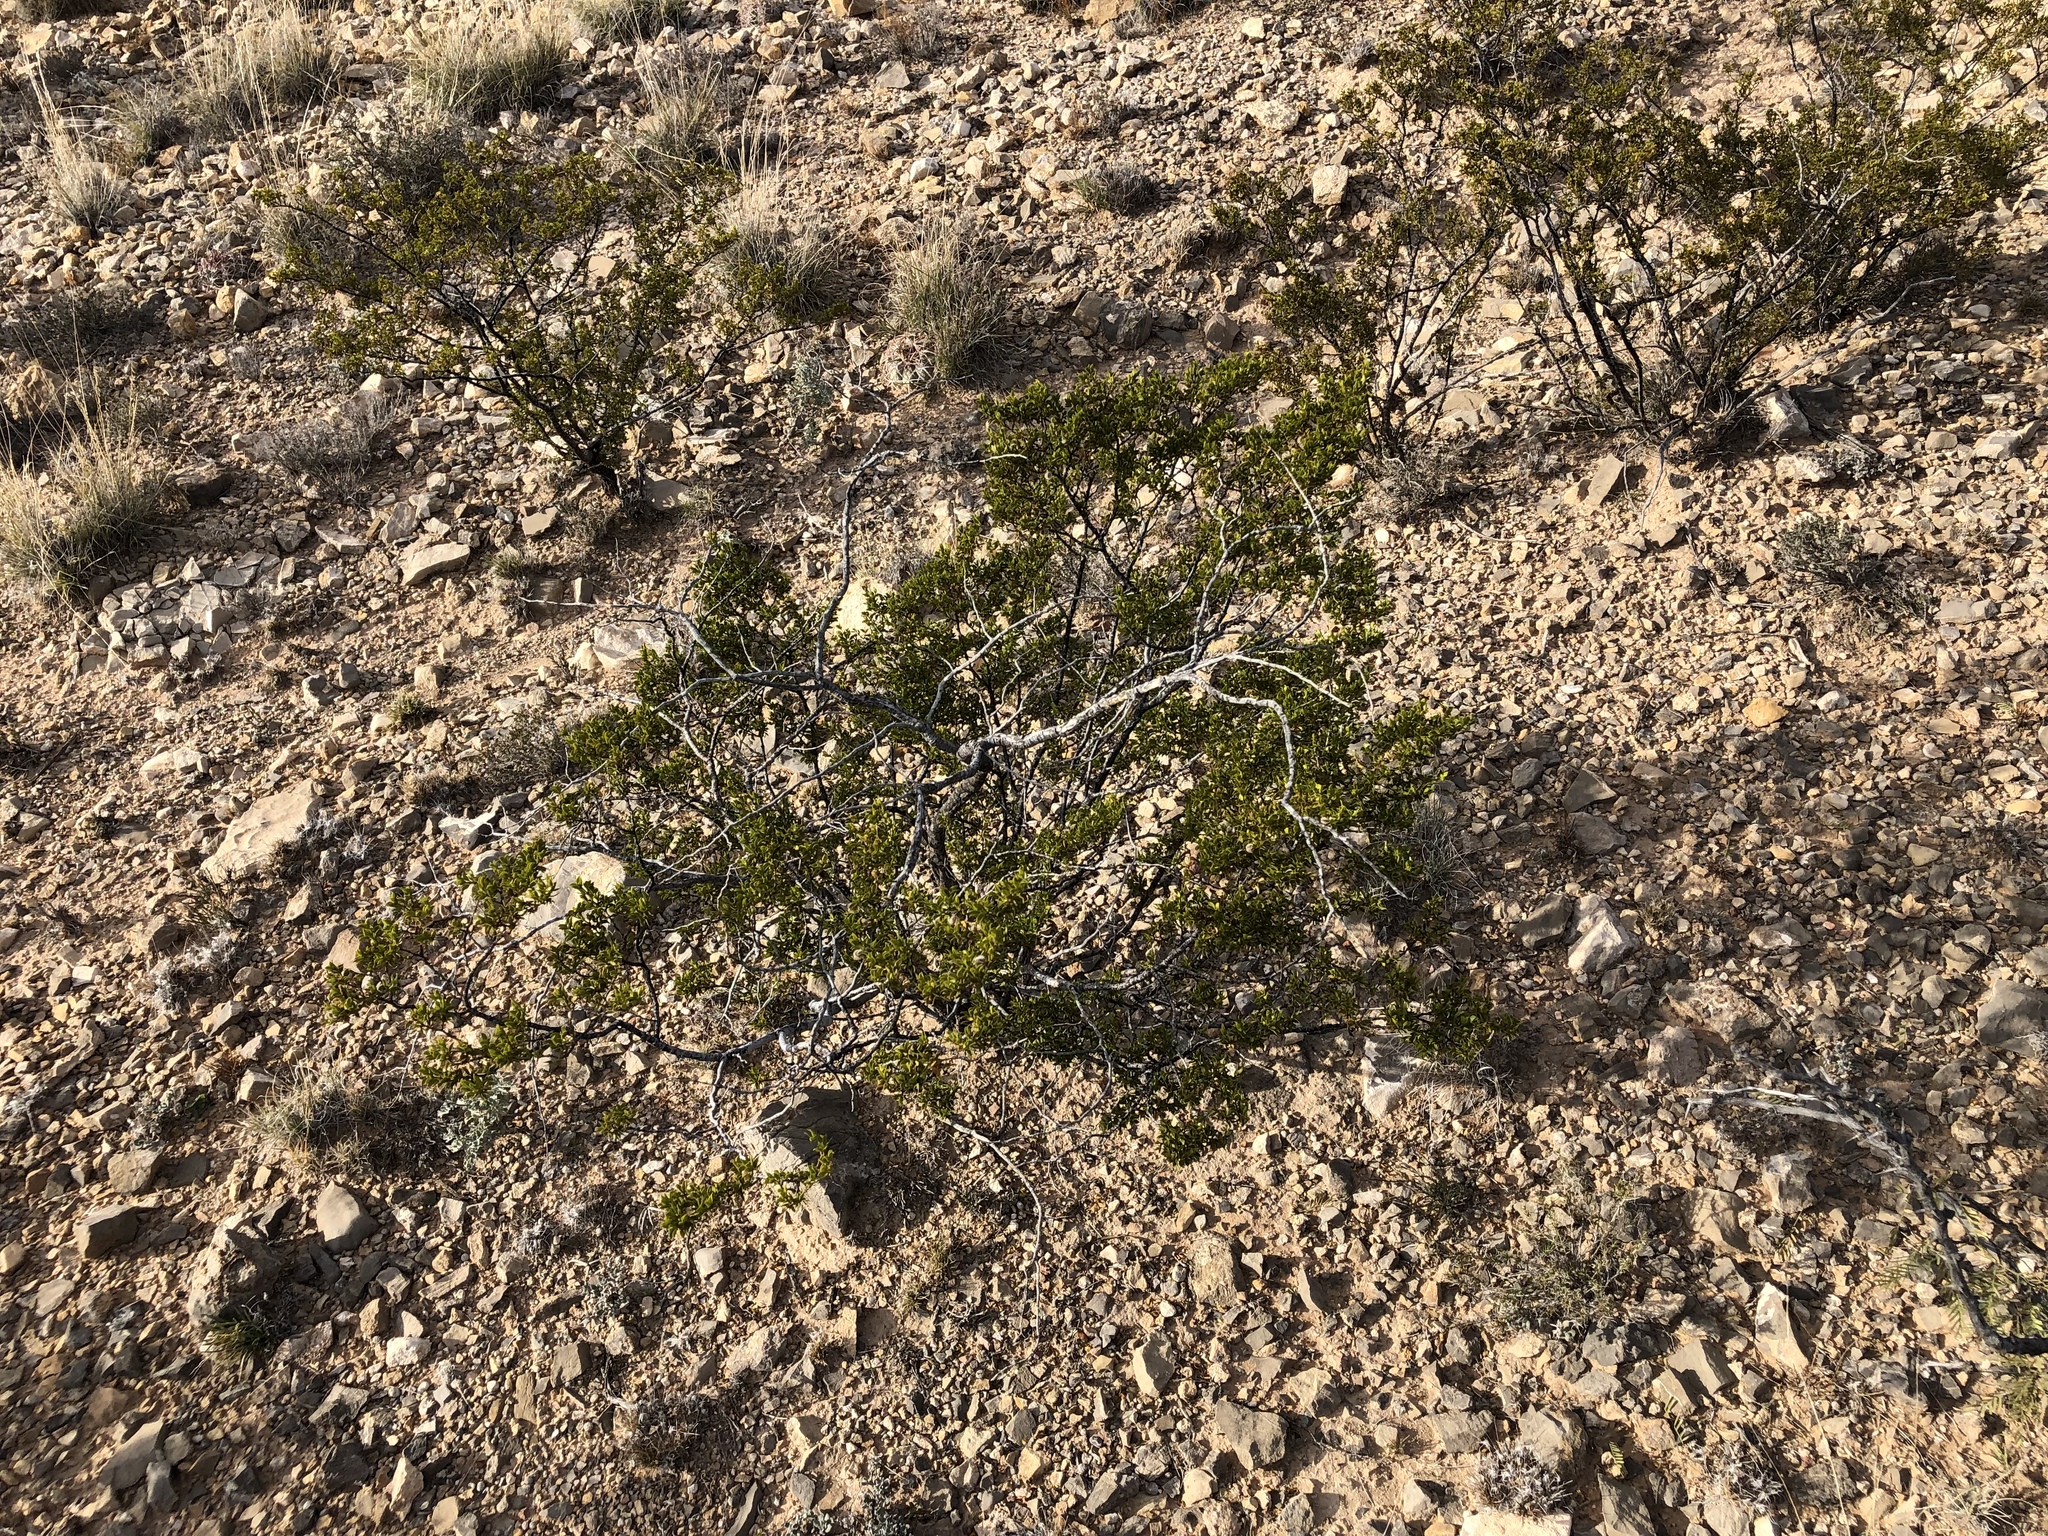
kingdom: Plantae
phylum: Tracheophyta
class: Magnoliopsida
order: Zygophyllales
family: Zygophyllaceae
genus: Larrea
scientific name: Larrea tridentata
